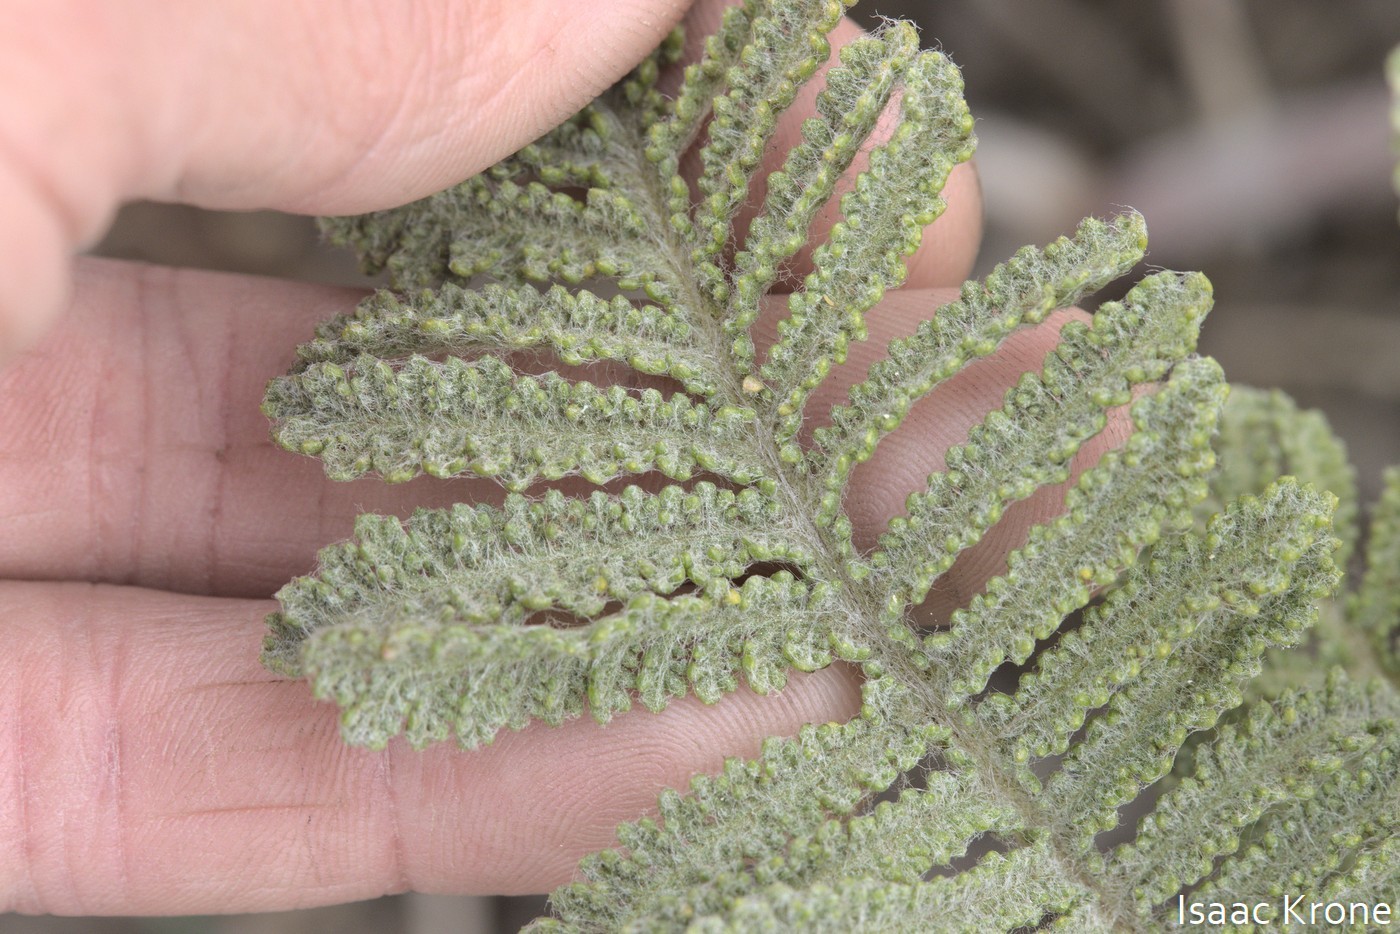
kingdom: Plantae
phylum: Tracheophyta
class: Magnoliopsida
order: Asterales
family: Asteraceae
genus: Tanacetum
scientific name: Tanacetum bipinnatum
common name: Dwarf tansy
